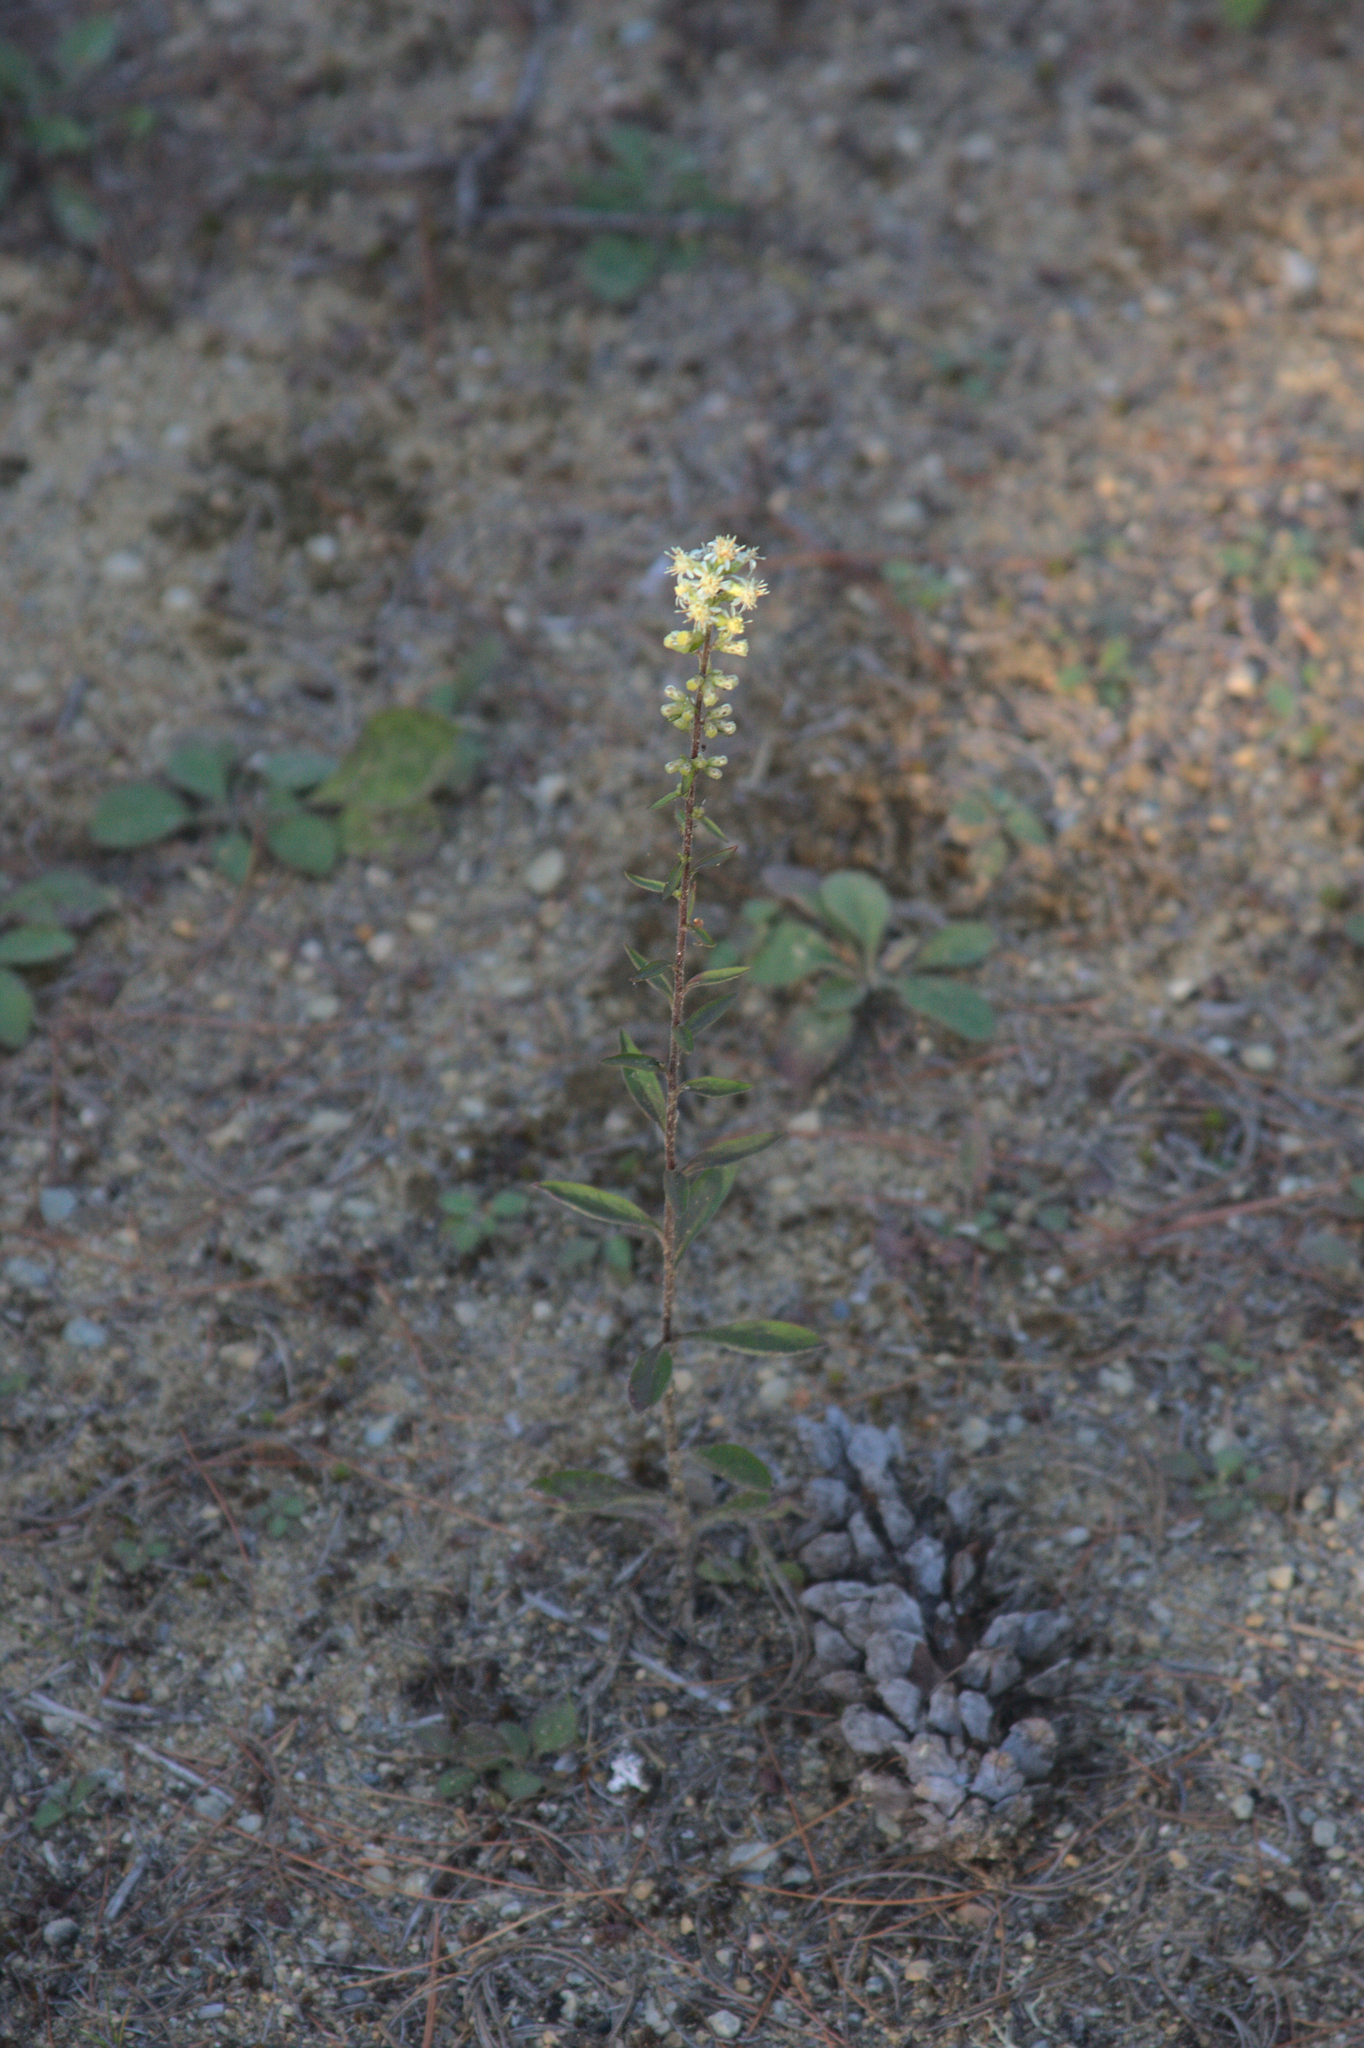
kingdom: Plantae
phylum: Tracheophyta
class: Magnoliopsida
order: Asterales
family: Asteraceae
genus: Solidago
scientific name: Solidago bicolor
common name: Silverrod
